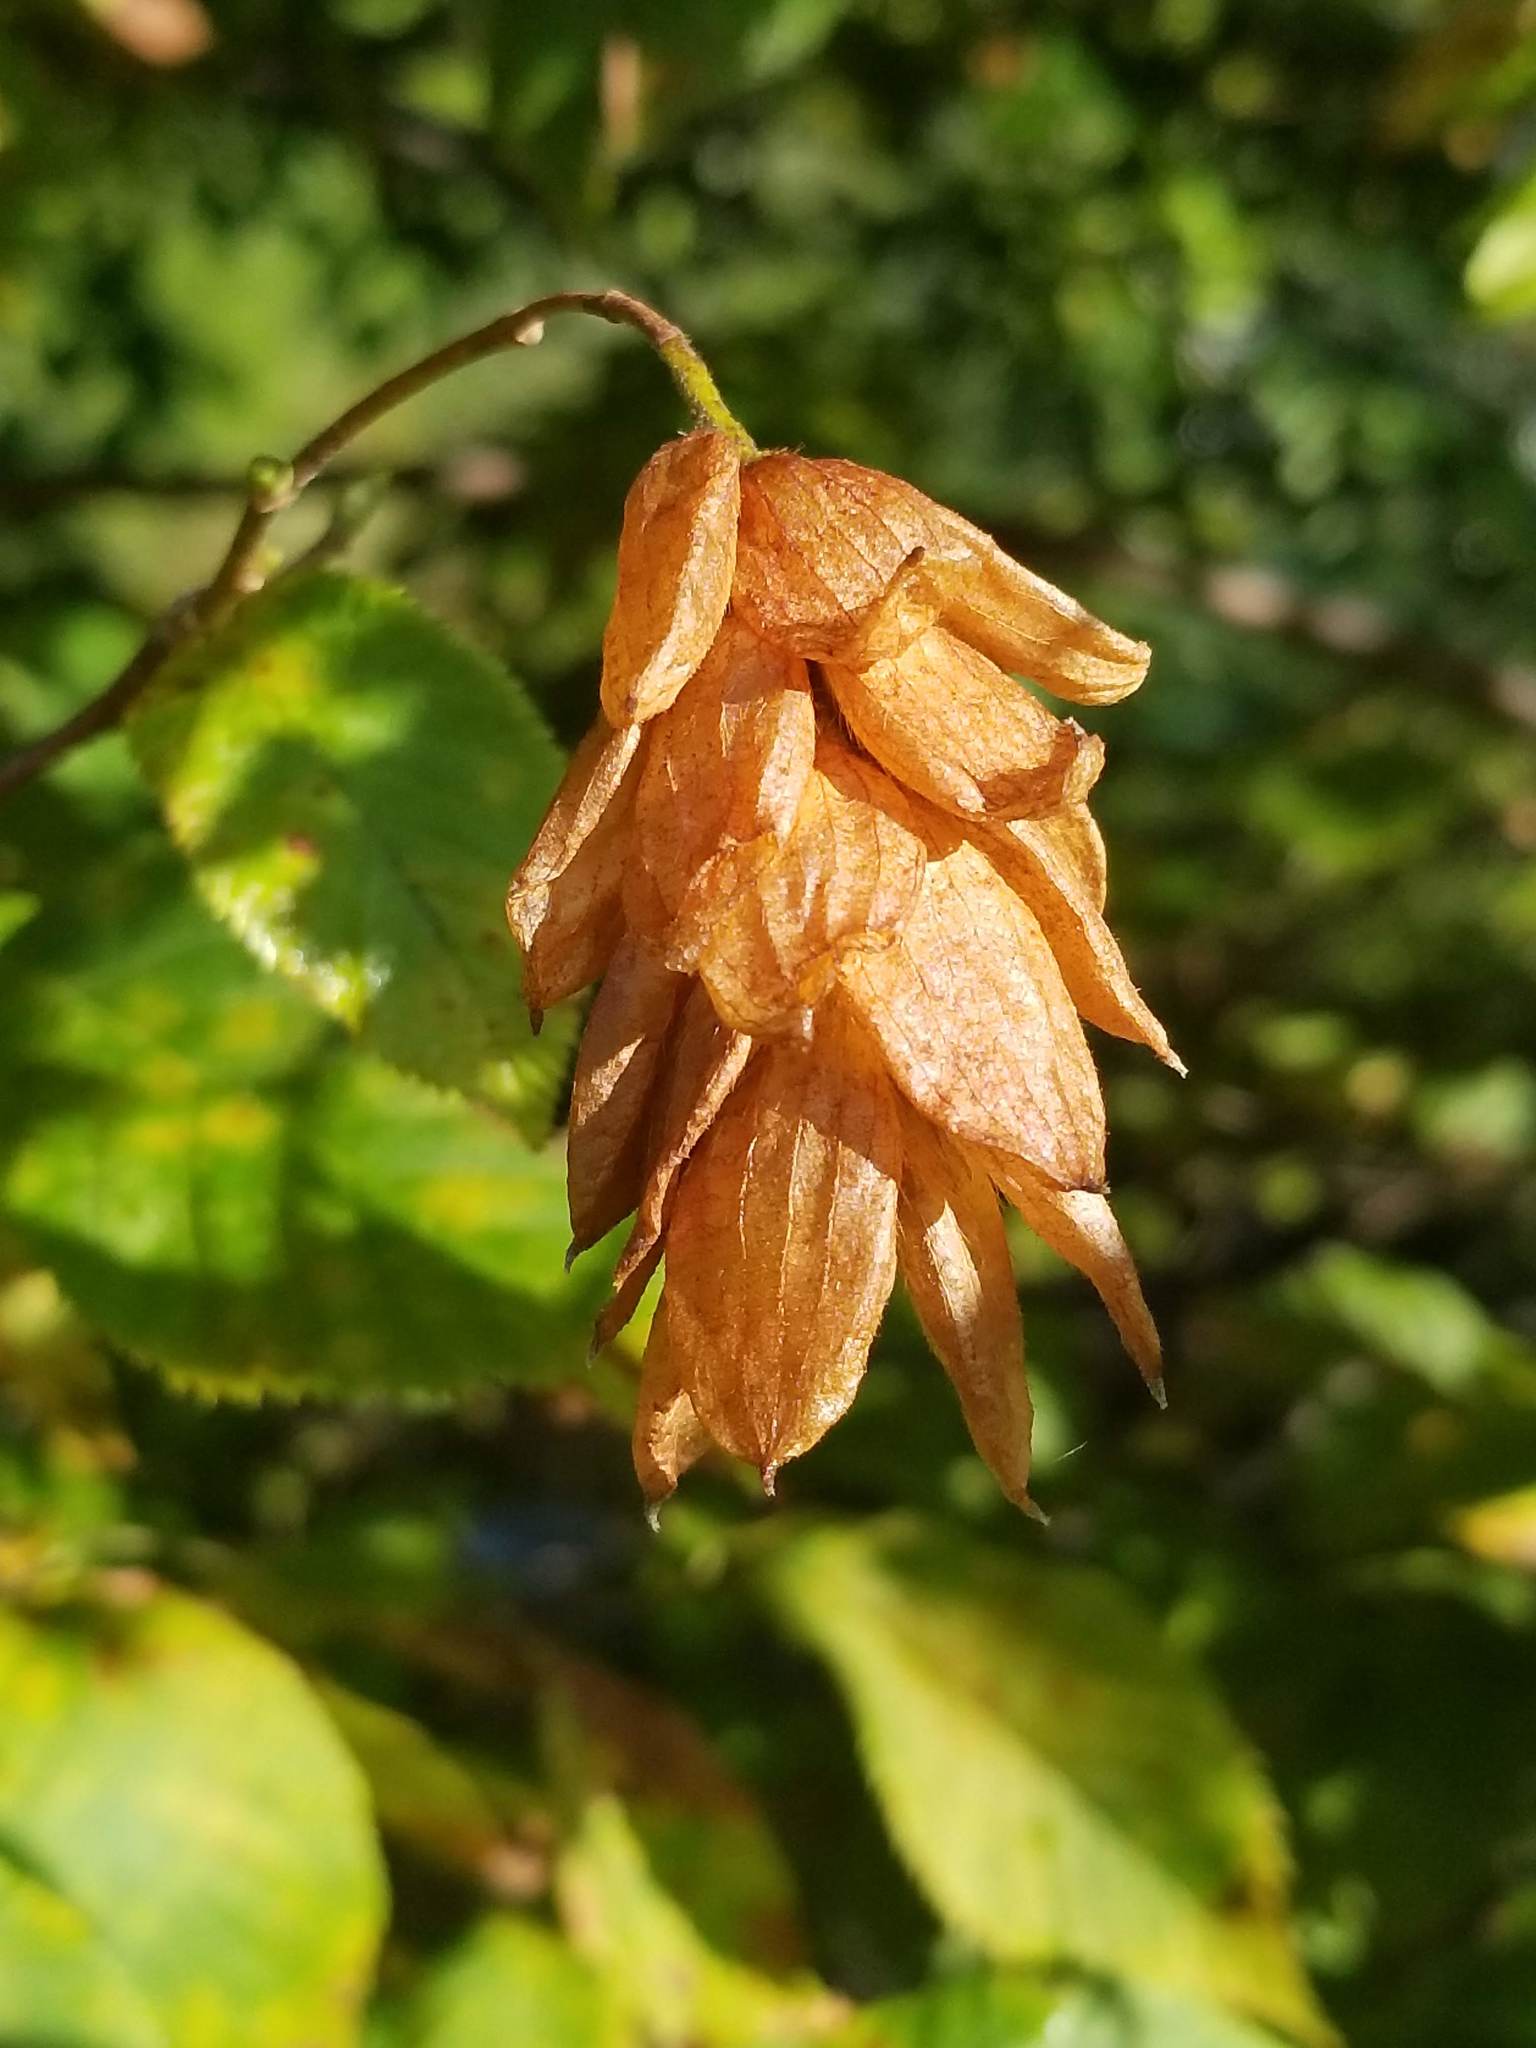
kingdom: Plantae
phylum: Tracheophyta
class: Magnoliopsida
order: Fagales
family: Betulaceae
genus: Ostrya
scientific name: Ostrya virginiana
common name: Ironwood
